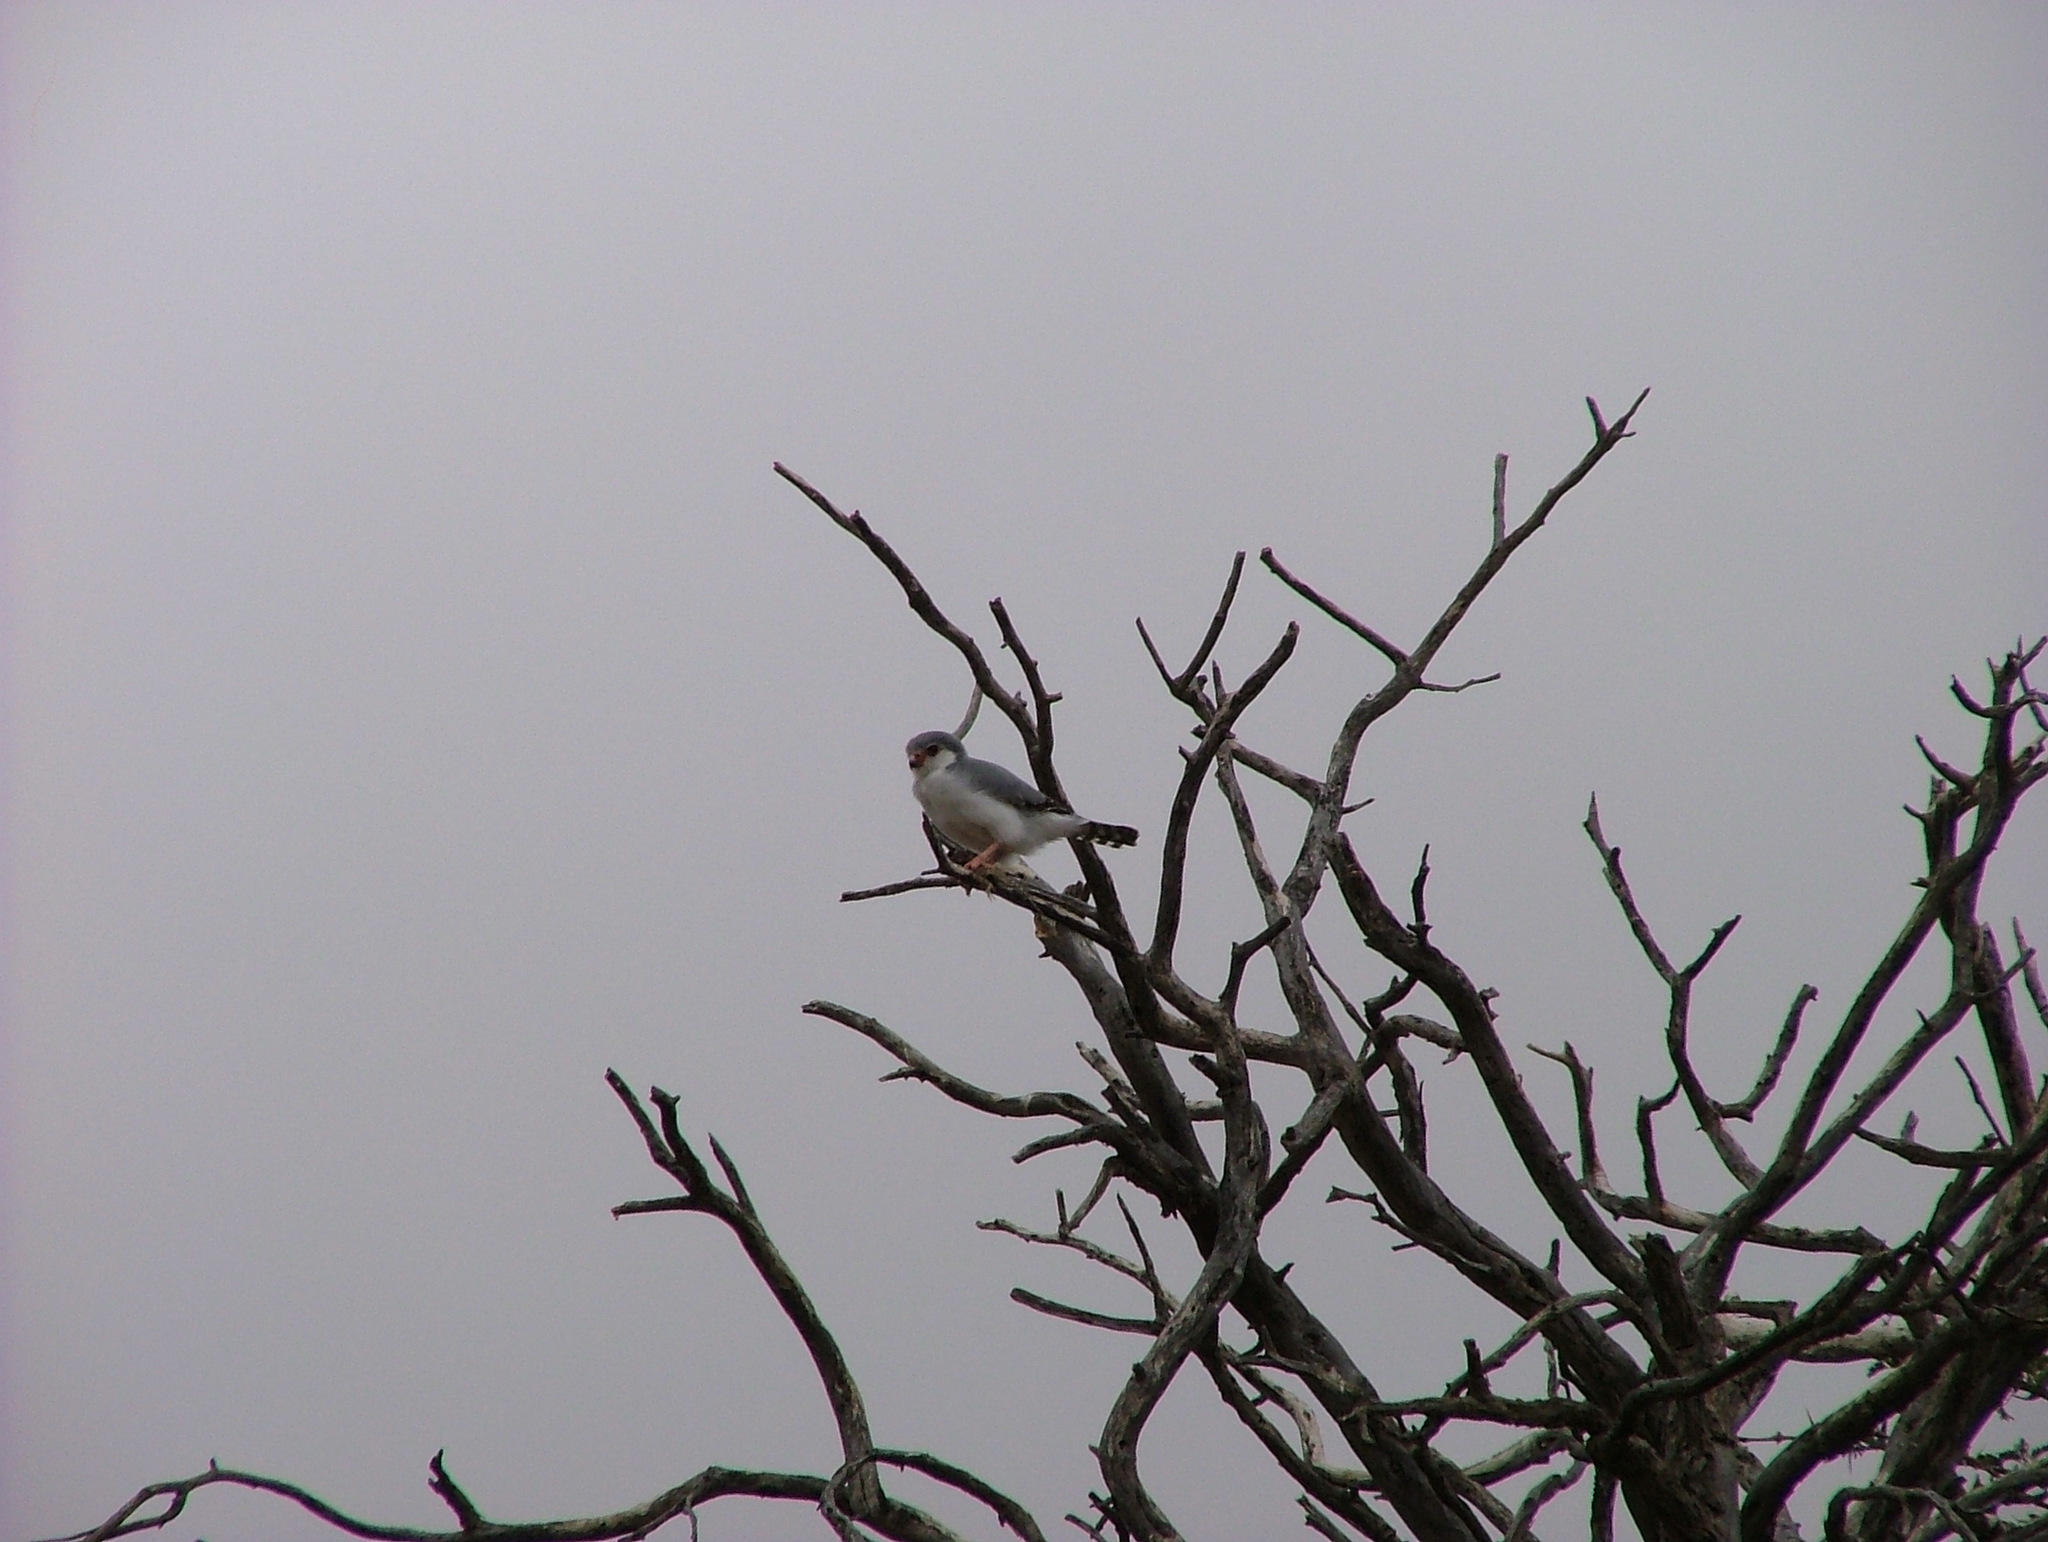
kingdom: Animalia
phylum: Chordata
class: Aves
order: Falconiformes
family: Falconidae
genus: Polihierax
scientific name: Polihierax semitorquatus
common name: Pygmy falcon
